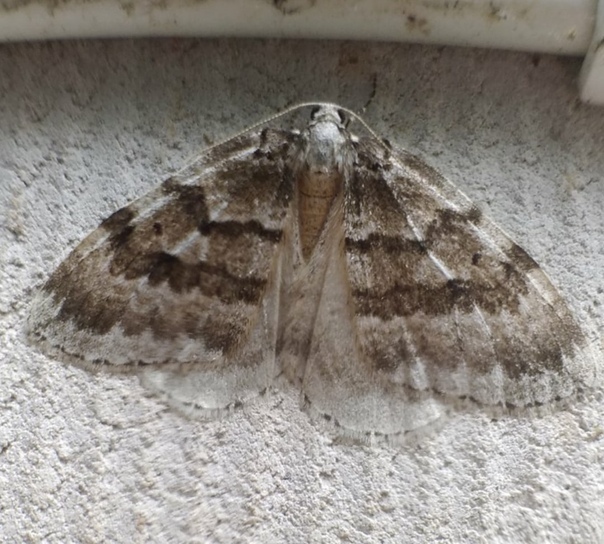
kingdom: Animalia
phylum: Arthropoda
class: Insecta
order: Lepidoptera
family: Geometridae
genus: Epirrita
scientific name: Epirrita autumnata
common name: Autumnal moth
